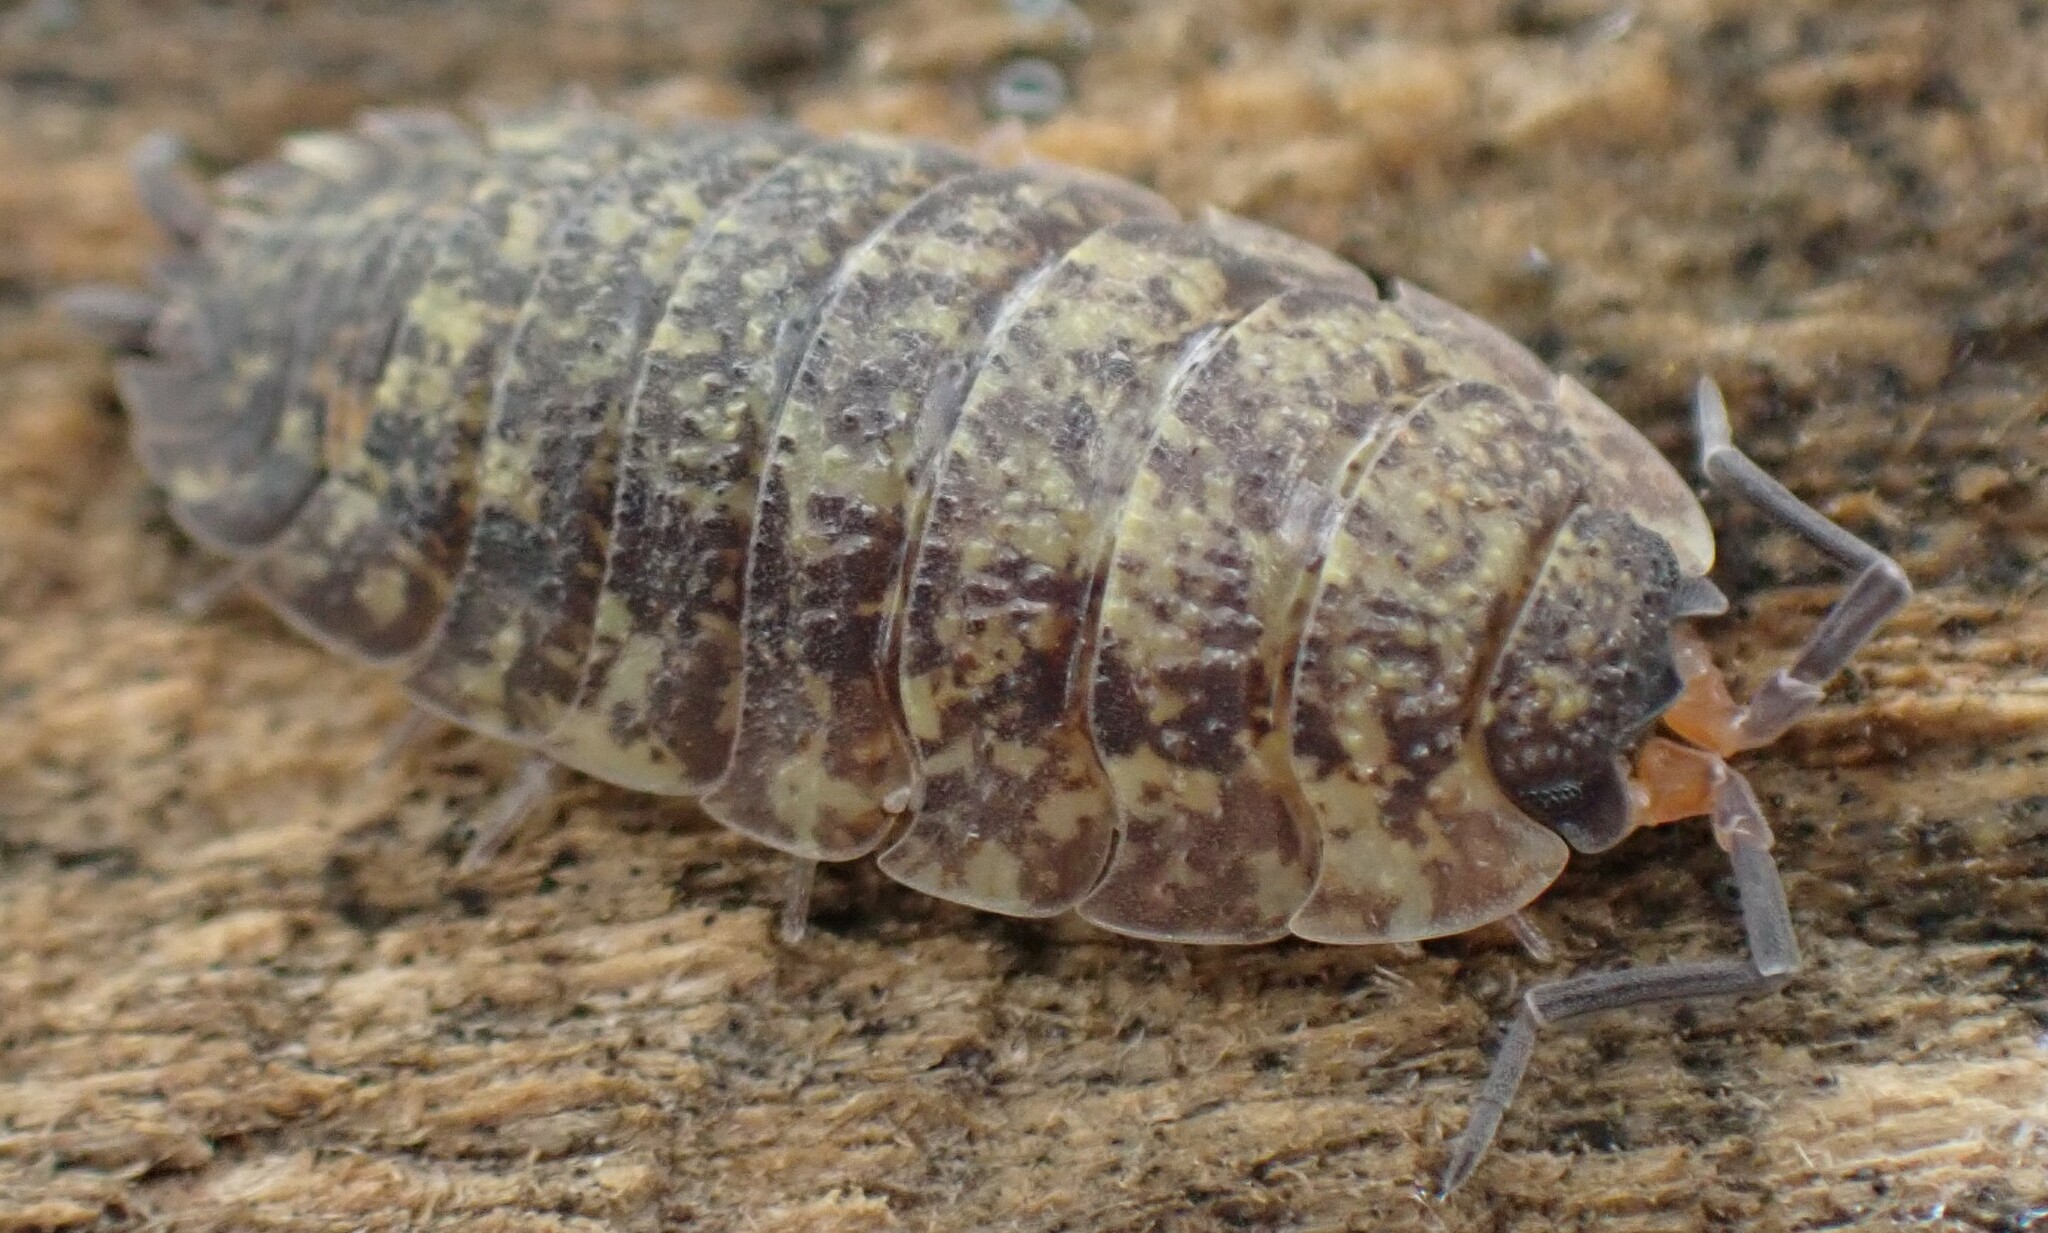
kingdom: Animalia
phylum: Arthropoda
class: Malacostraca
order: Isopoda
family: Porcellionidae
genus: Porcellio
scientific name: Porcellio scaber
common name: Common rough woodlouse
